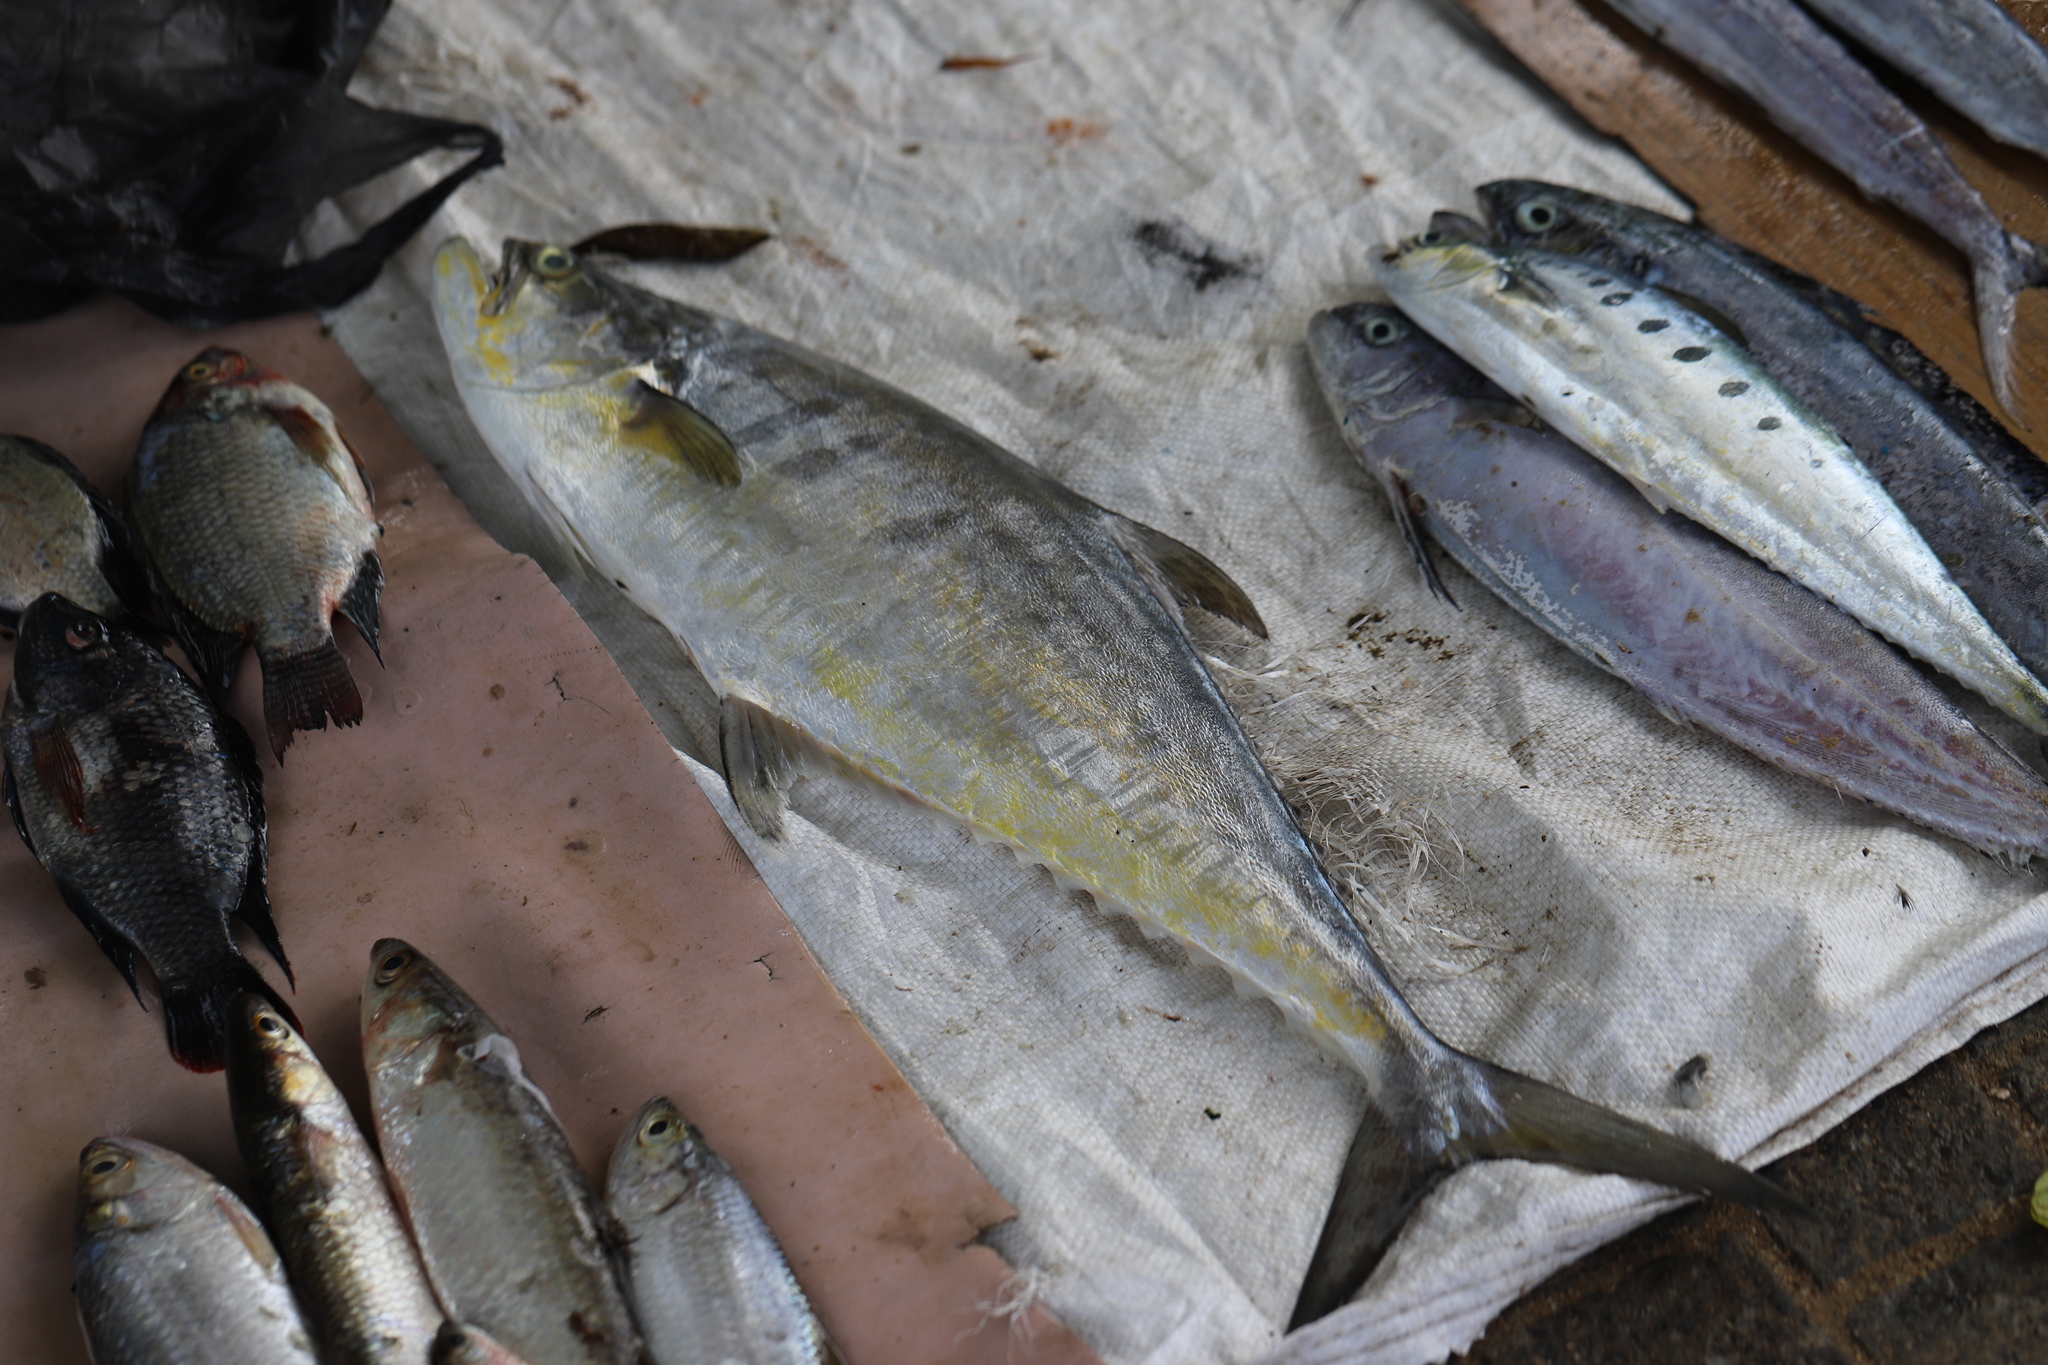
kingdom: Animalia
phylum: Chordata
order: Perciformes
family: Carangidae
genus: Scomberoides
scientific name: Scomberoides tala
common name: Barred queenfish
